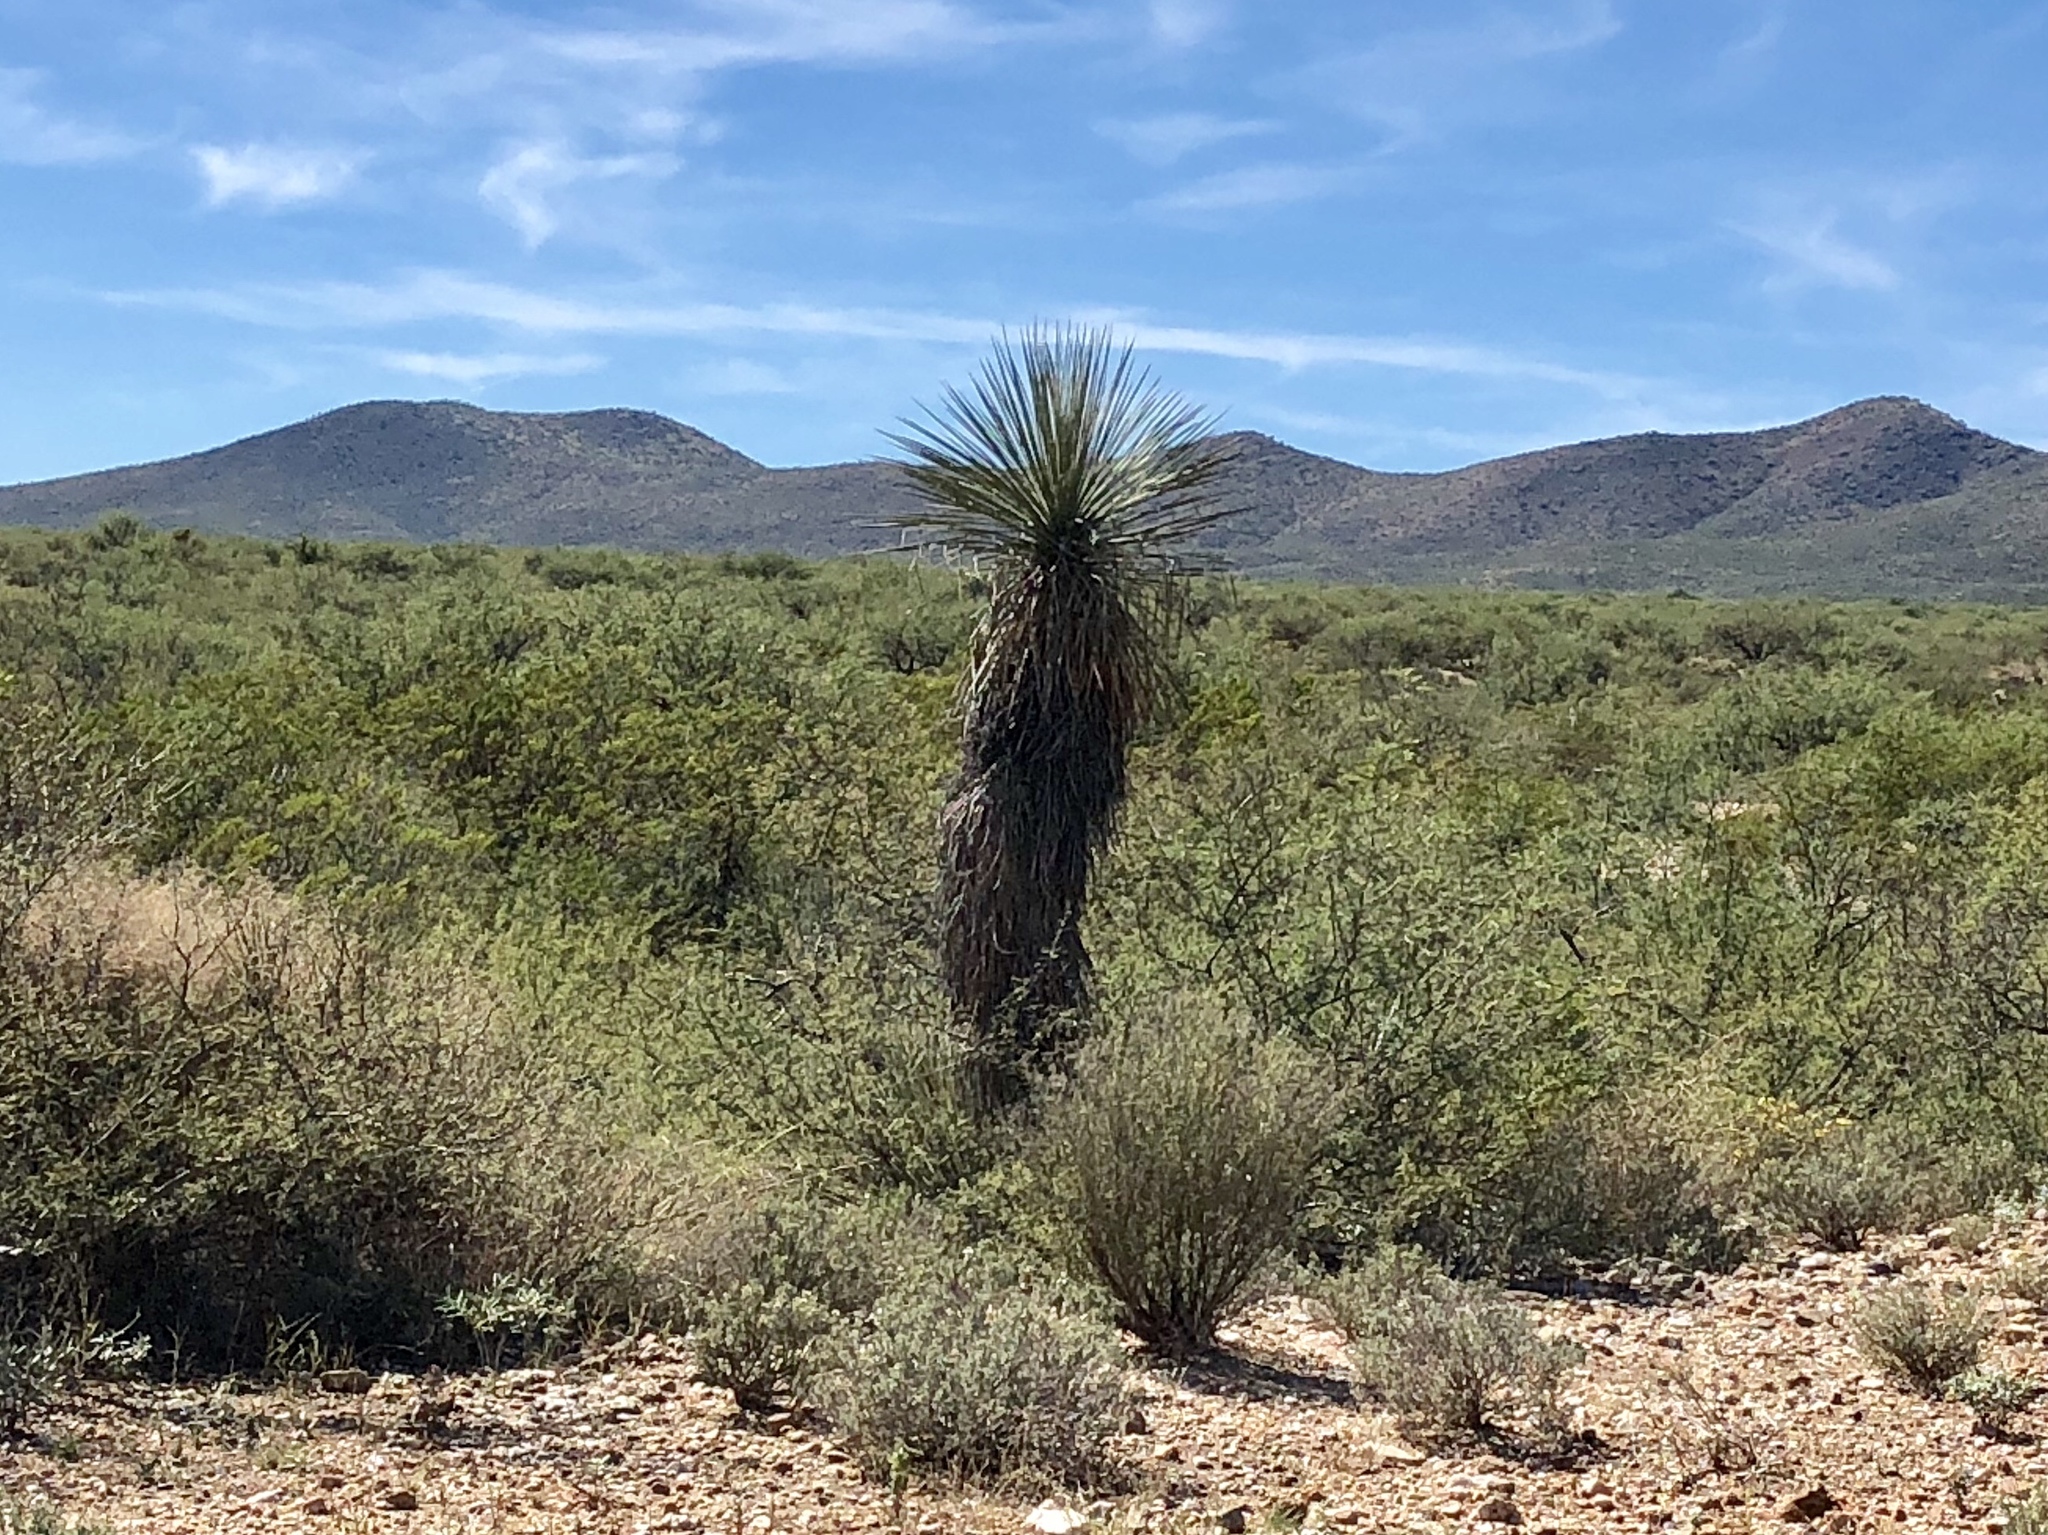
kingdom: Plantae
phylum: Tracheophyta
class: Liliopsida
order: Asparagales
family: Asparagaceae
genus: Yucca
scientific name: Yucca elata
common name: Palmella
